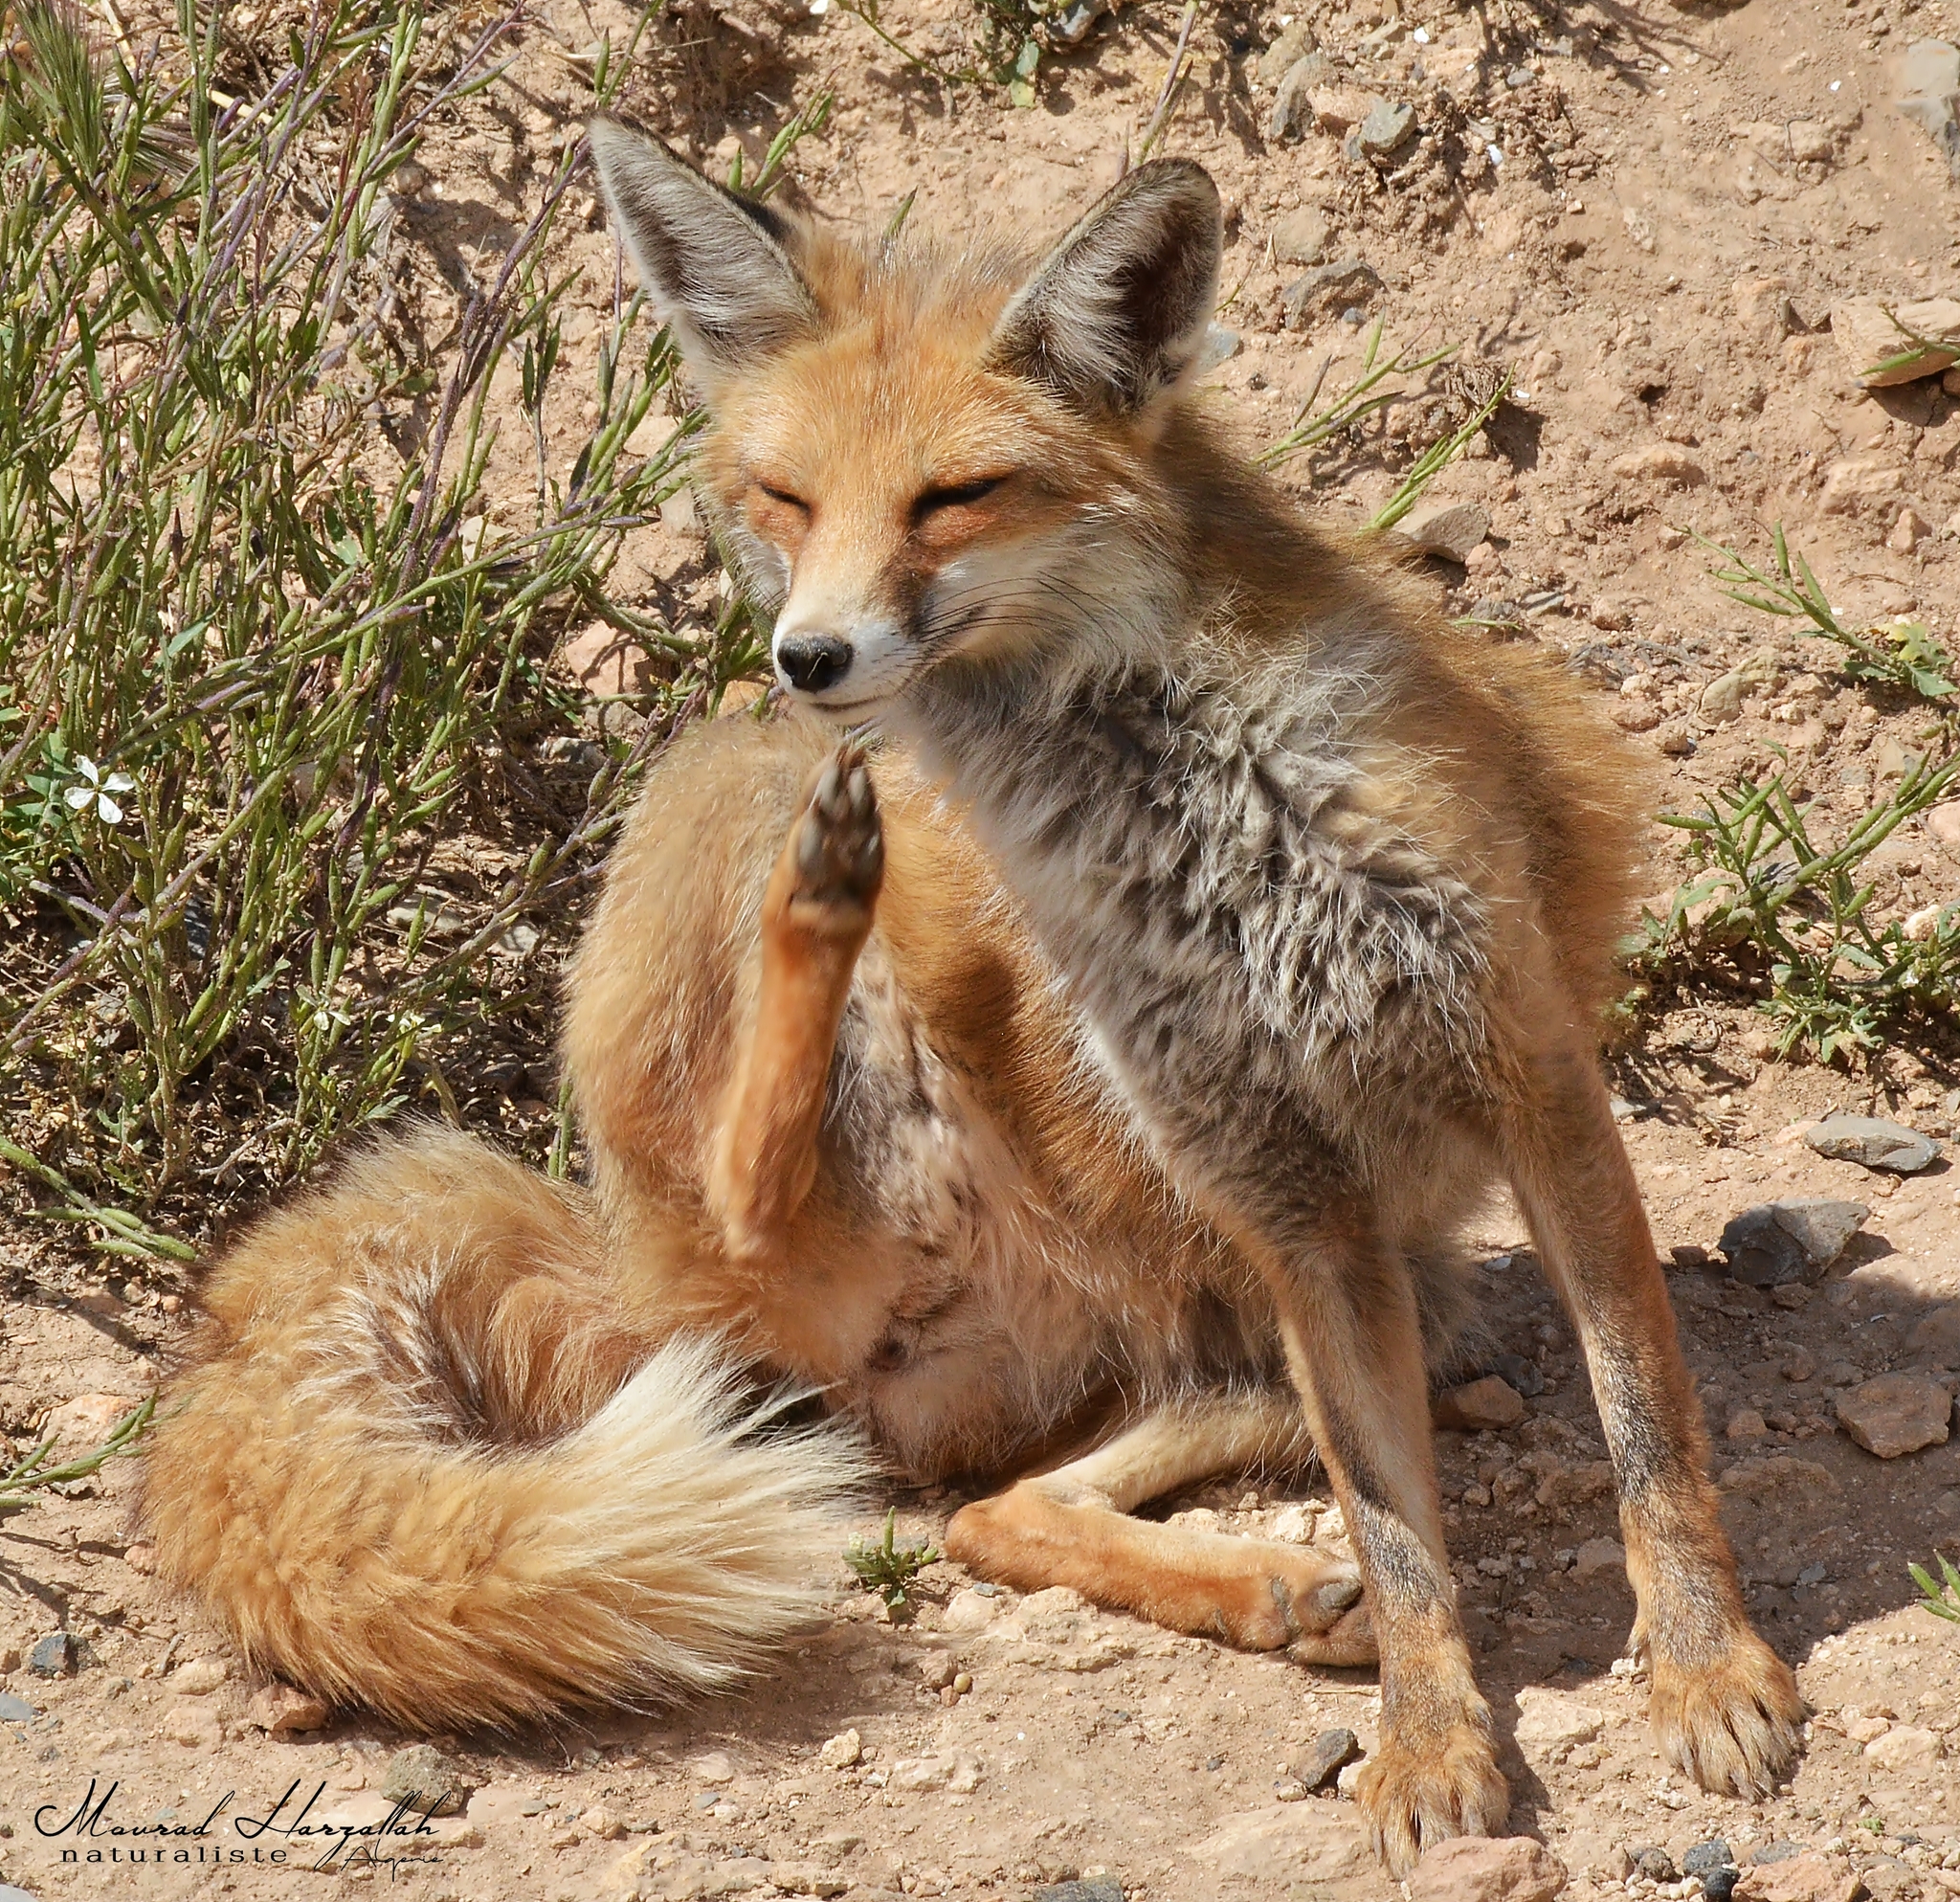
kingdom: Animalia
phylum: Chordata
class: Mammalia
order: Carnivora
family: Canidae
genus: Vulpes
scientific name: Vulpes vulpes
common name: Red fox
